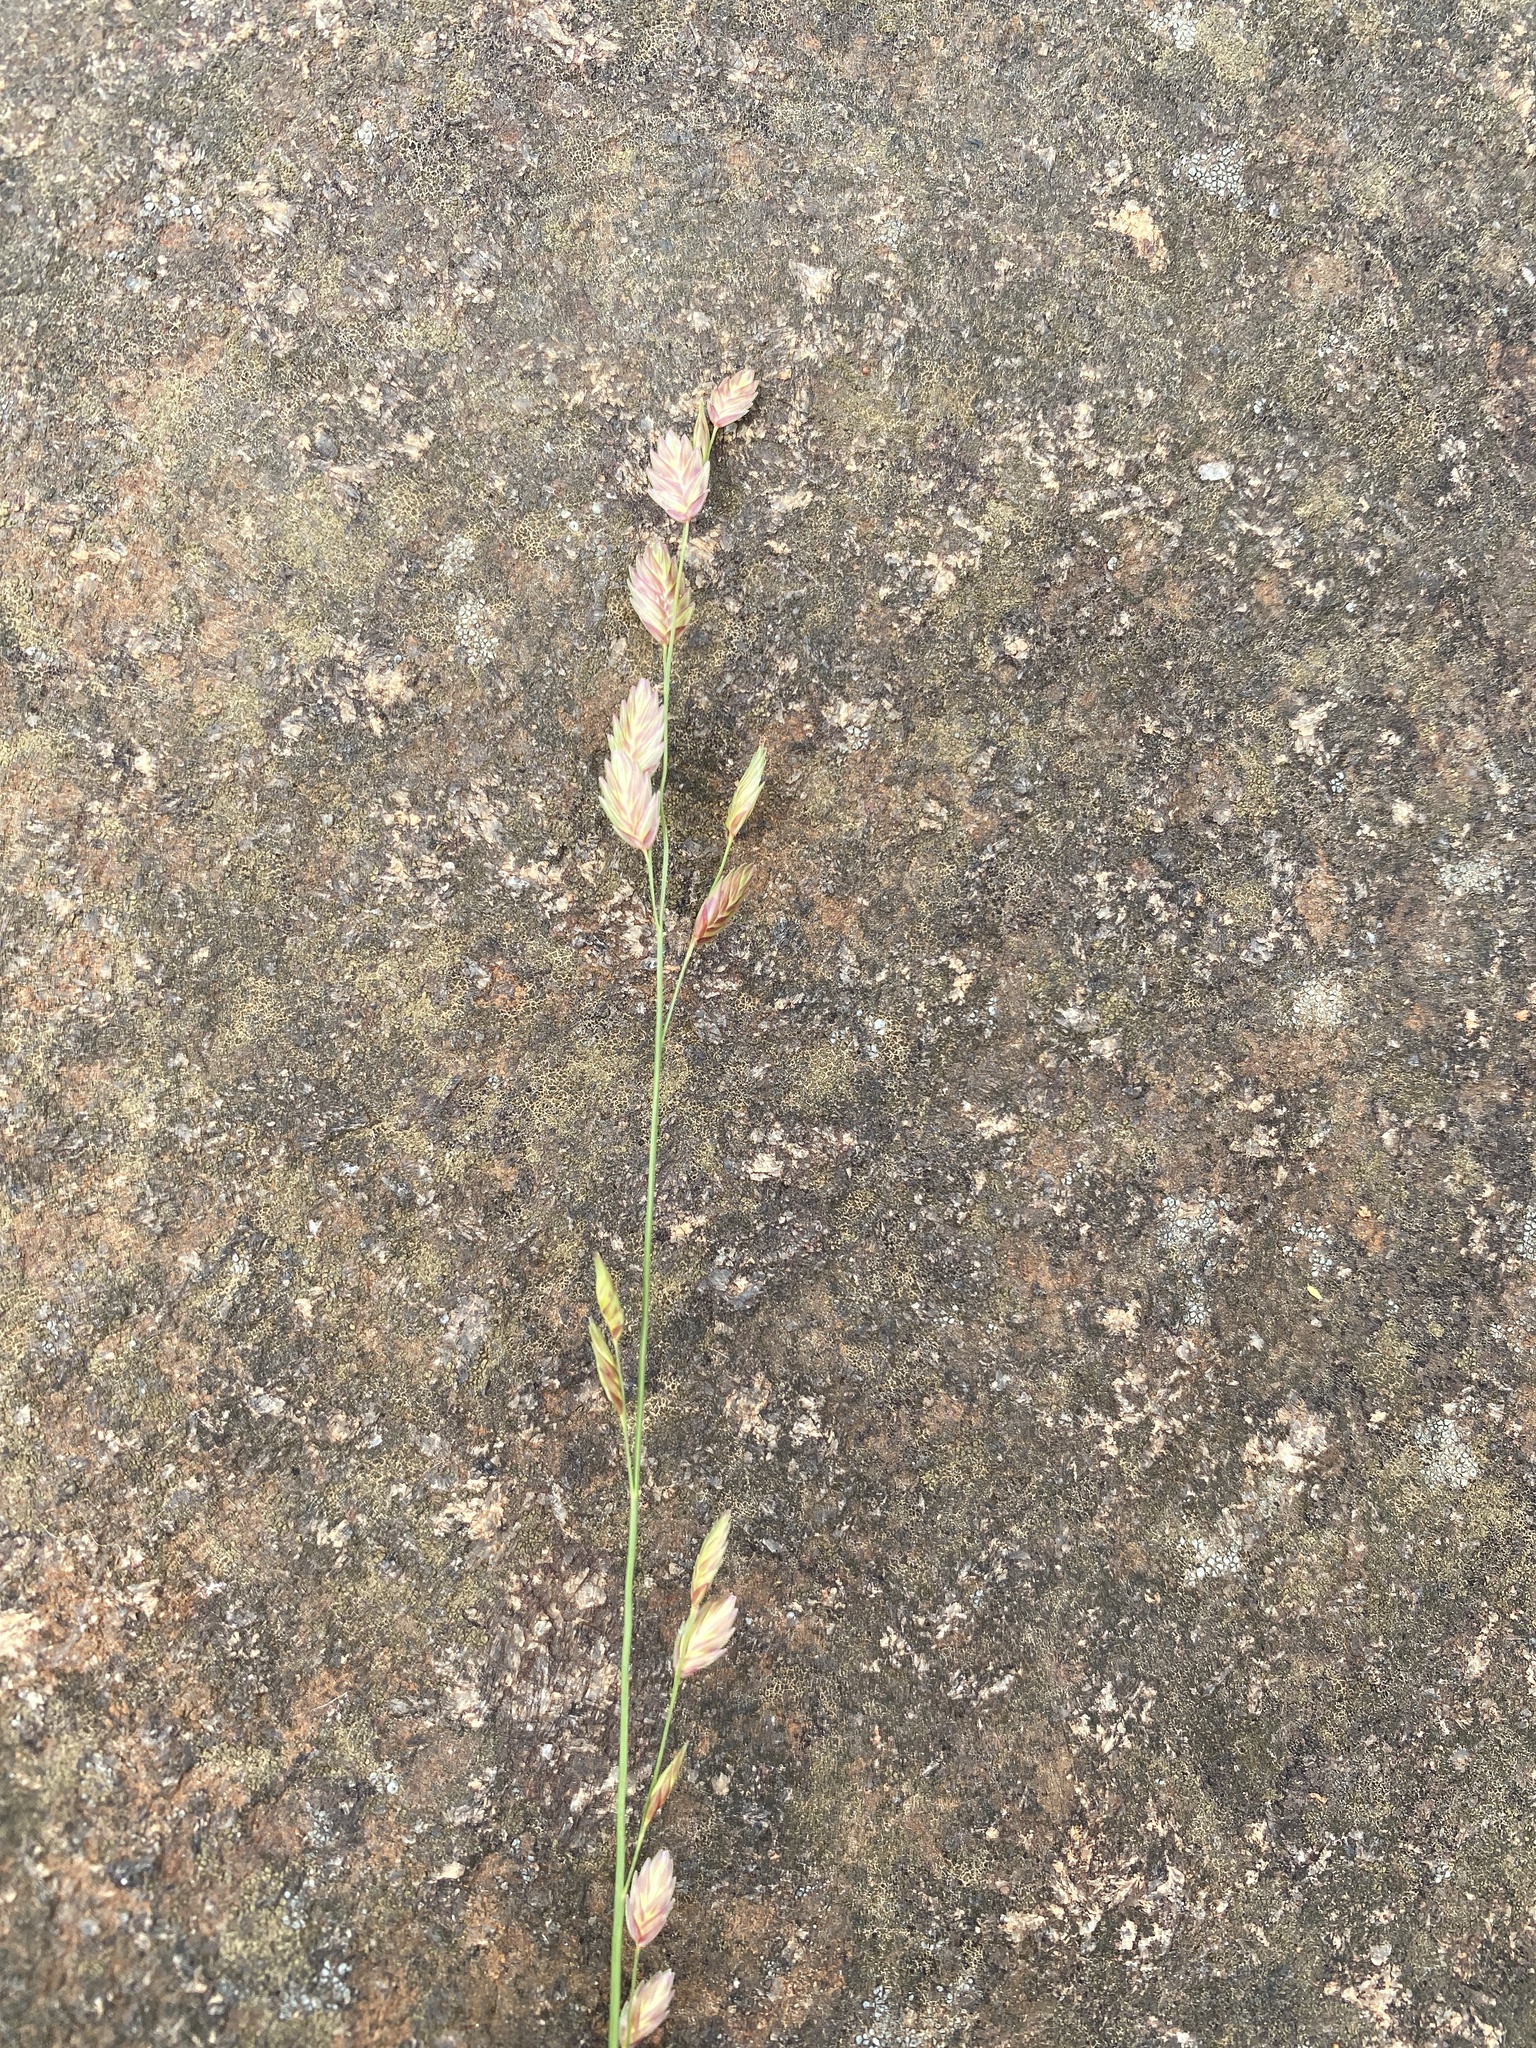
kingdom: Plantae
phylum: Tracheophyta
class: Liliopsida
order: Poales
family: Poaceae
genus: Eragrostis
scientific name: Eragrostis superba
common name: Wilman lovegrass
